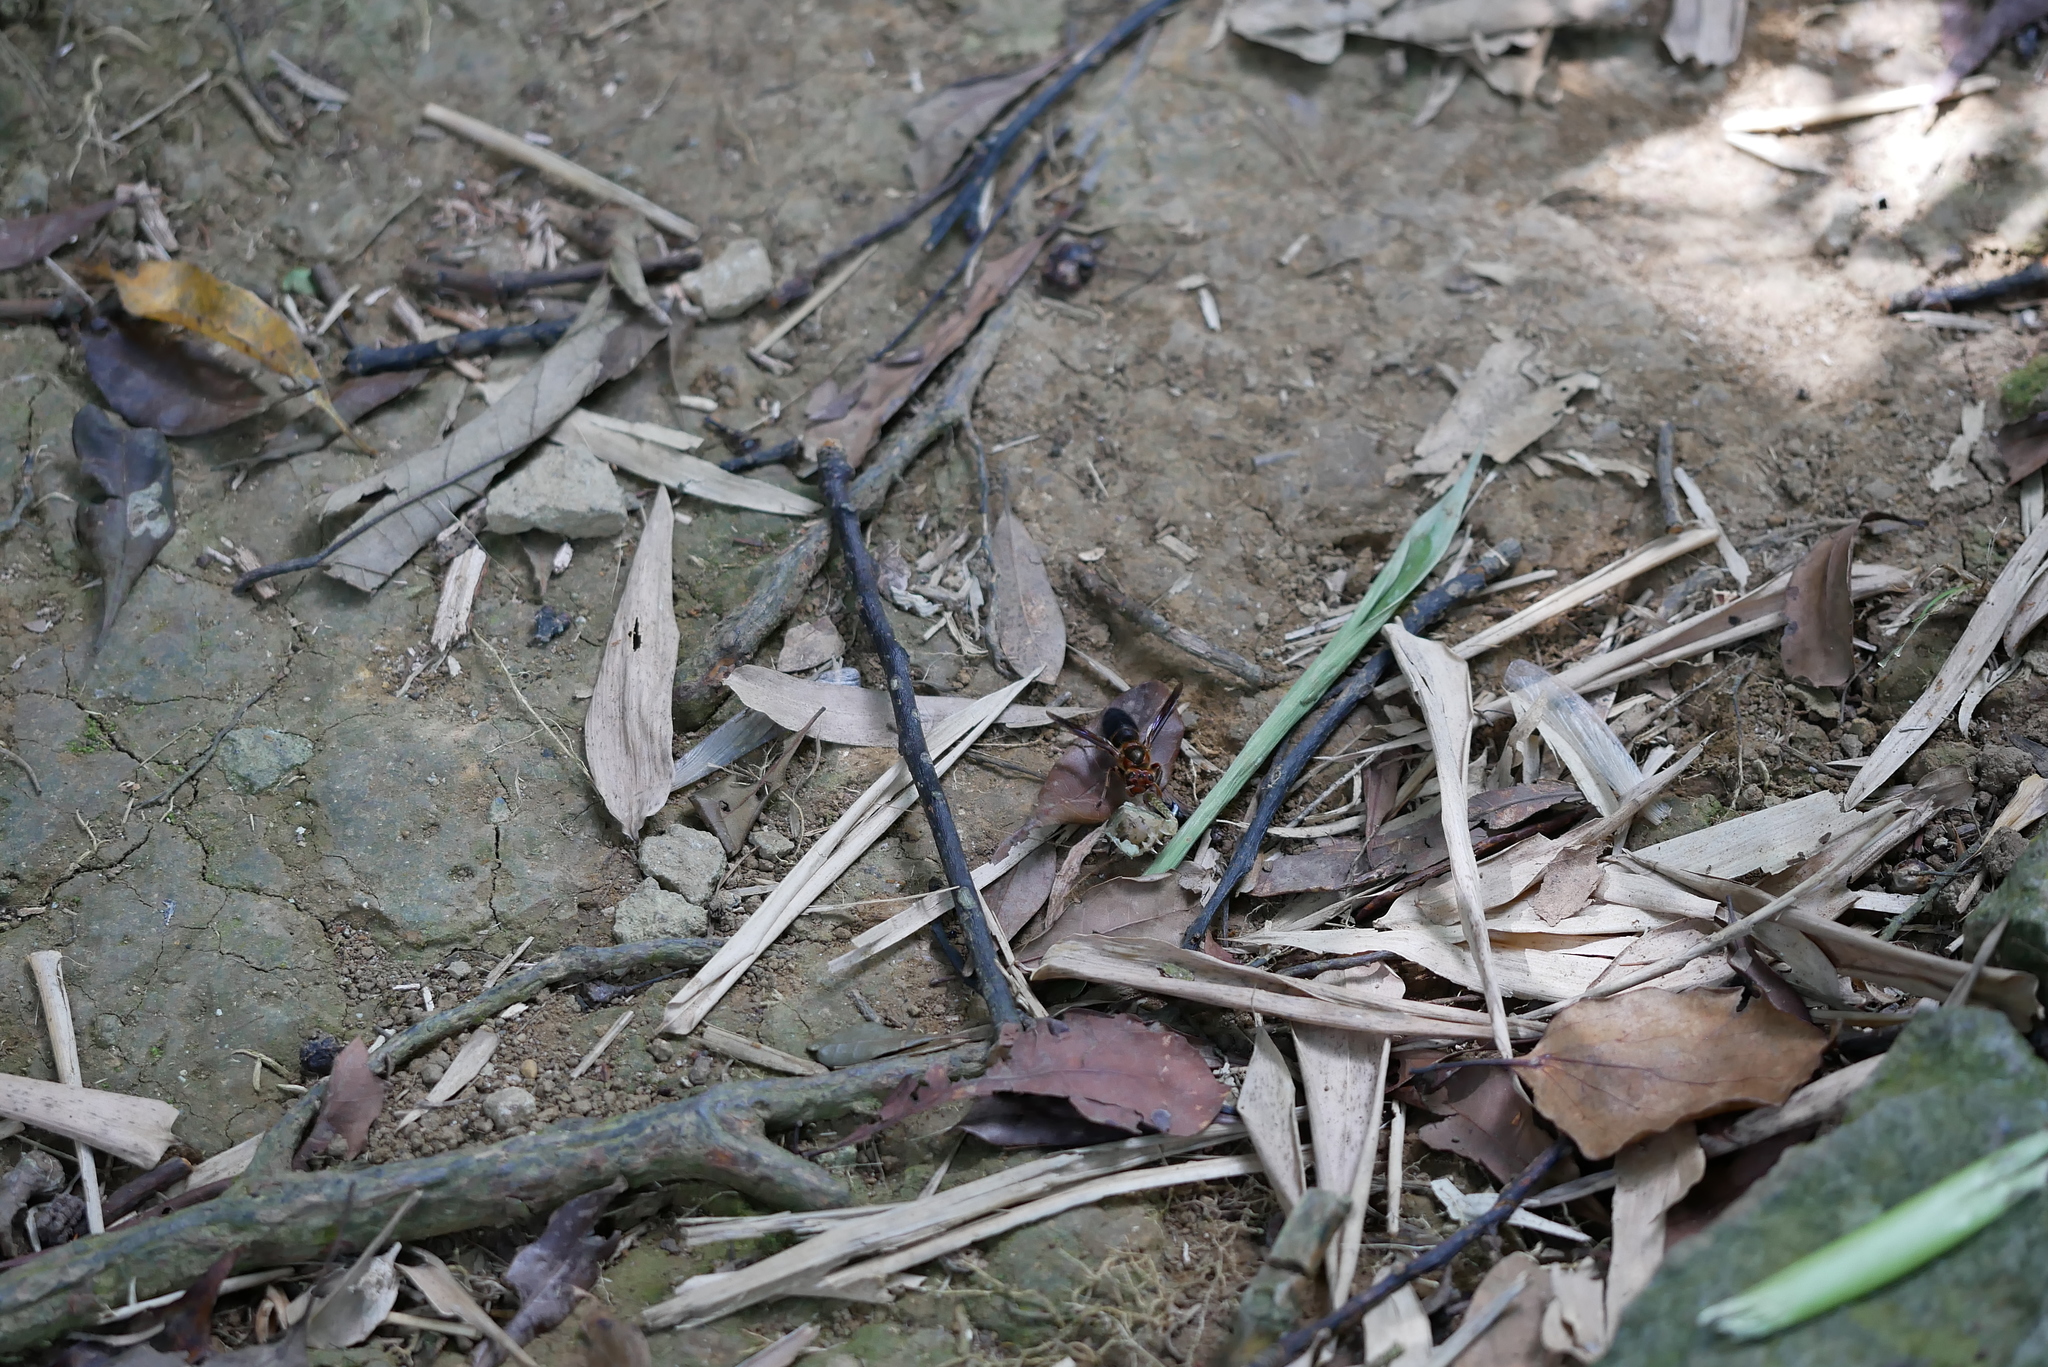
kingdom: Animalia
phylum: Arthropoda
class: Insecta
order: Hymenoptera
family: Vespidae
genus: Vespa
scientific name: Vespa basalis
